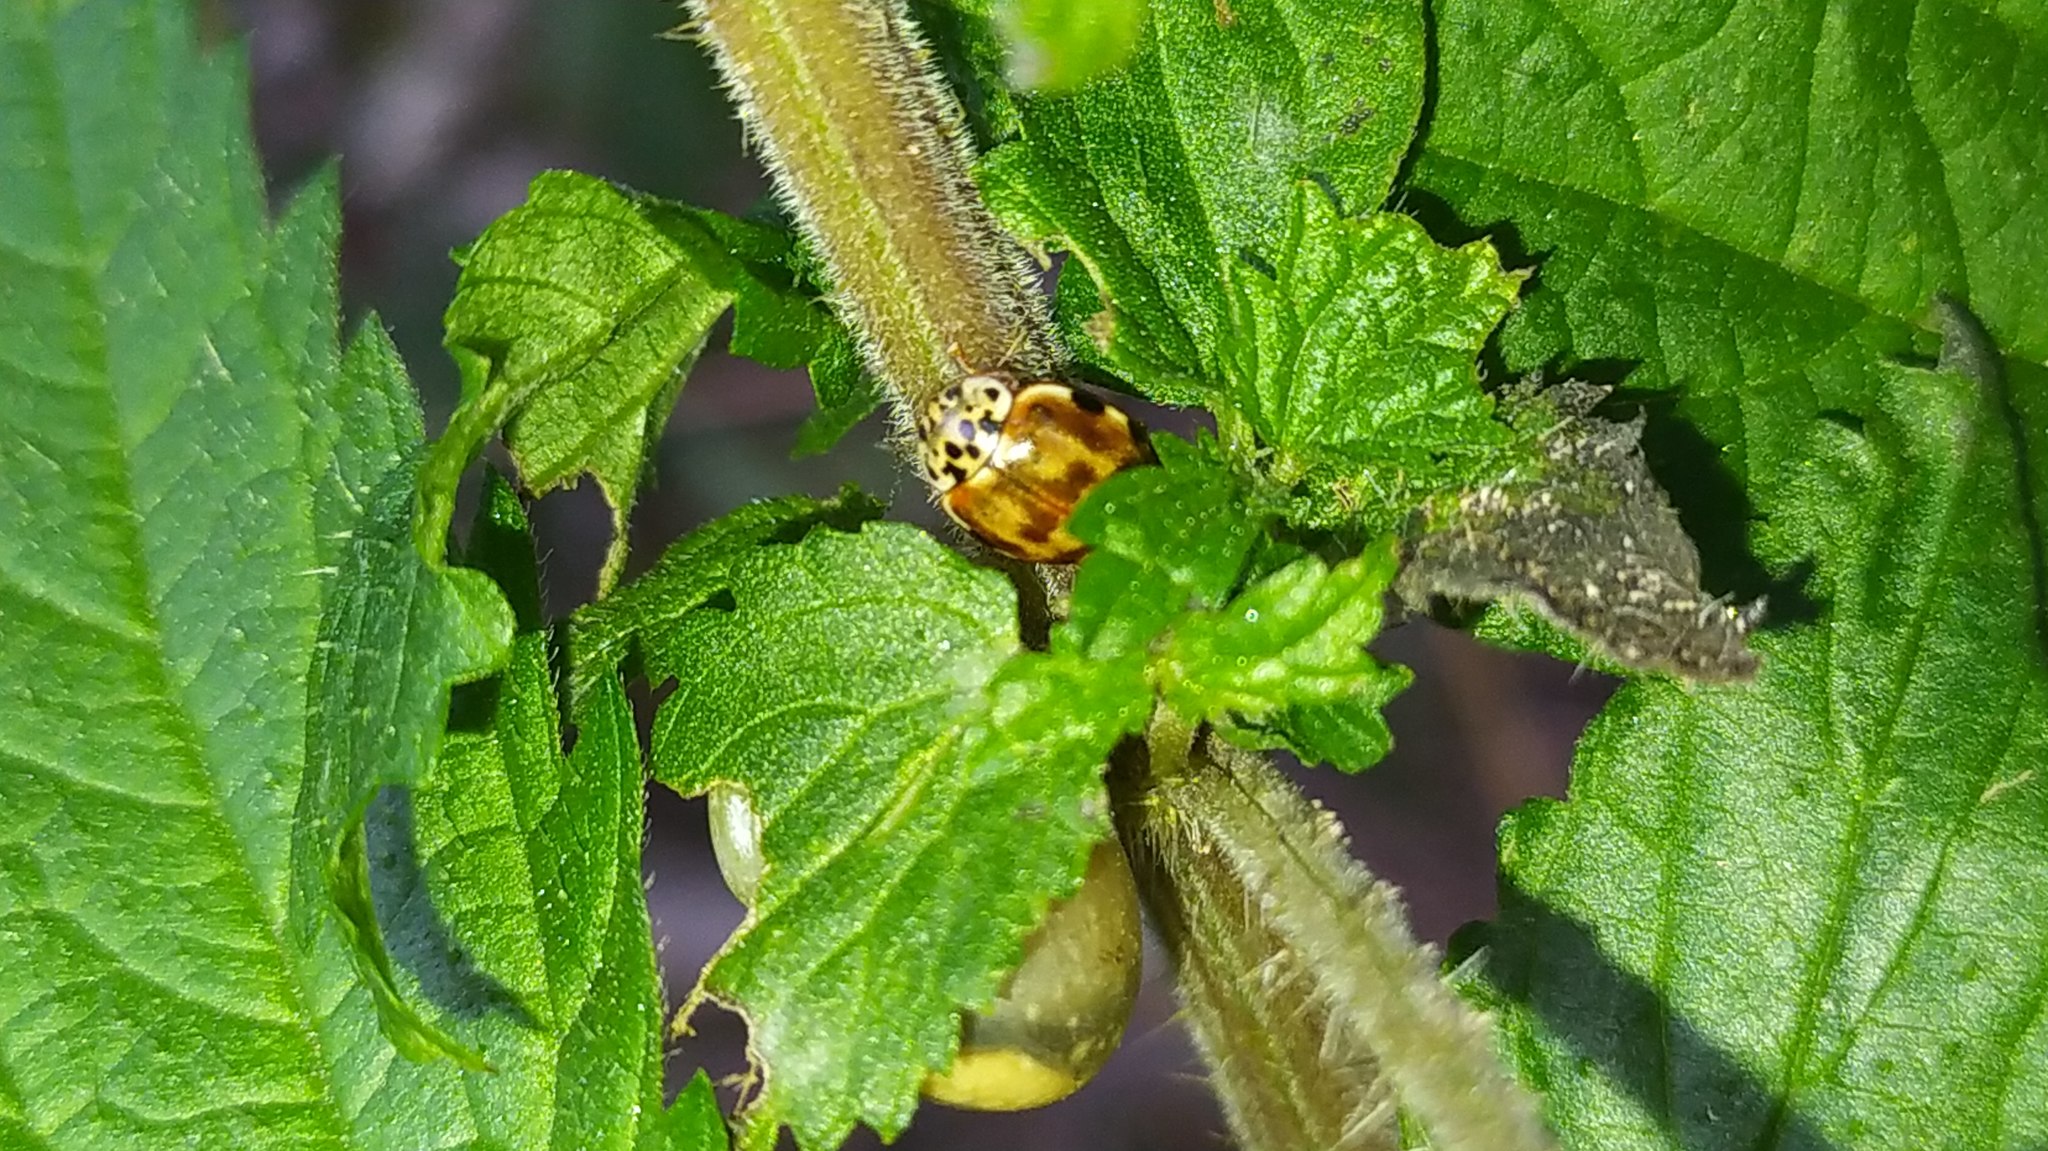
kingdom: Animalia
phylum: Arthropoda
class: Insecta
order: Coleoptera
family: Coccinellidae
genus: Harmonia
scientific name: Harmonia quadripunctata
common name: Cream-streaked ladybird
